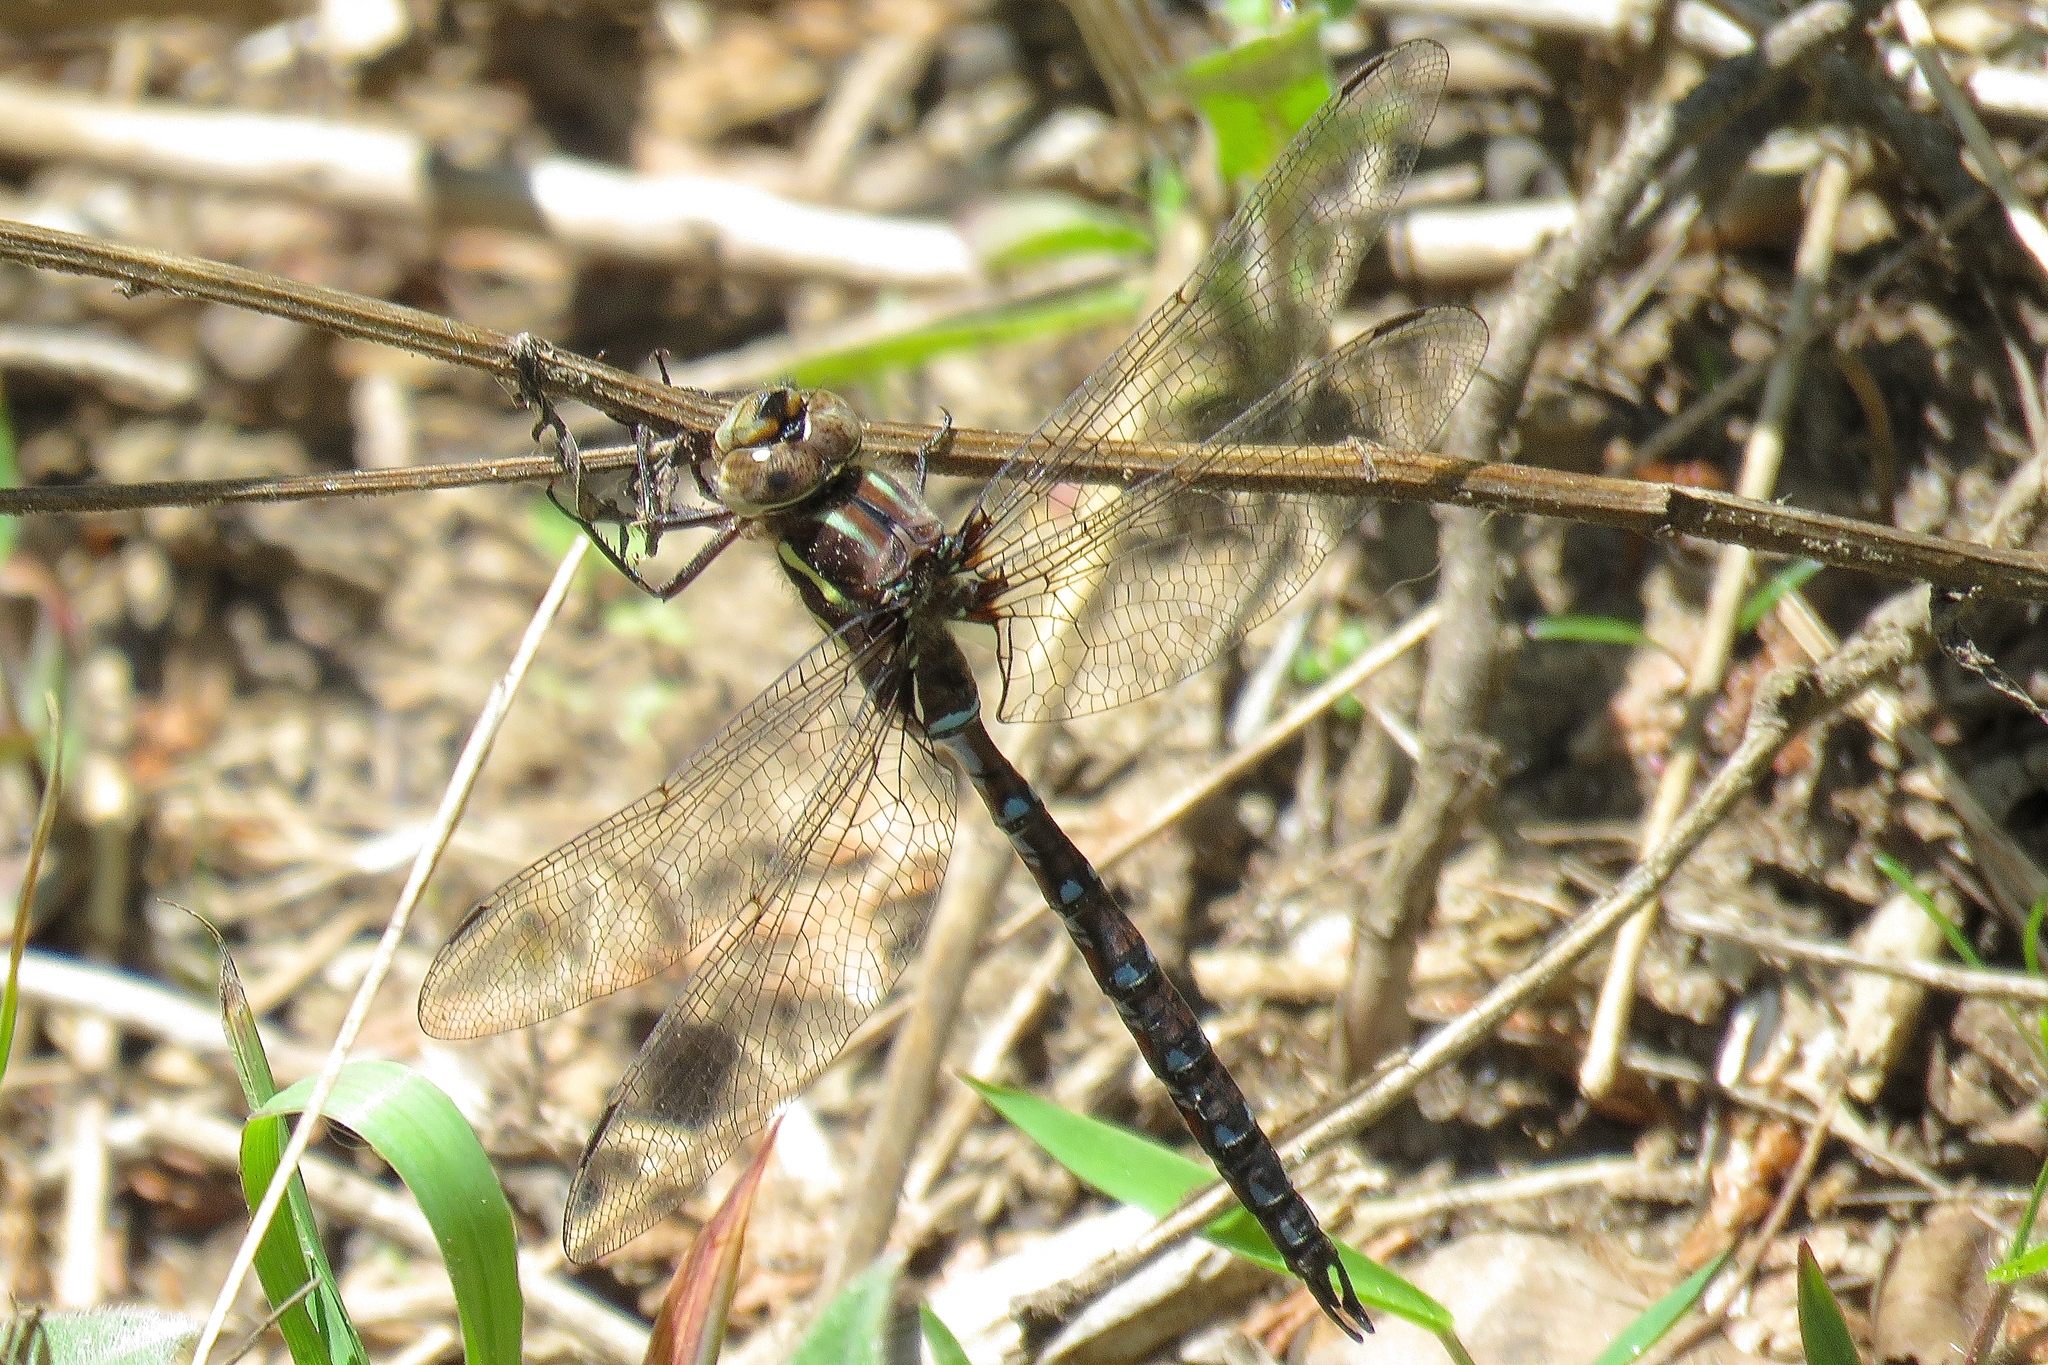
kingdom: Animalia
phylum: Arthropoda
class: Insecta
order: Odonata
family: Aeshnidae
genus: Basiaeschna
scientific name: Basiaeschna janata
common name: Springtime darner
